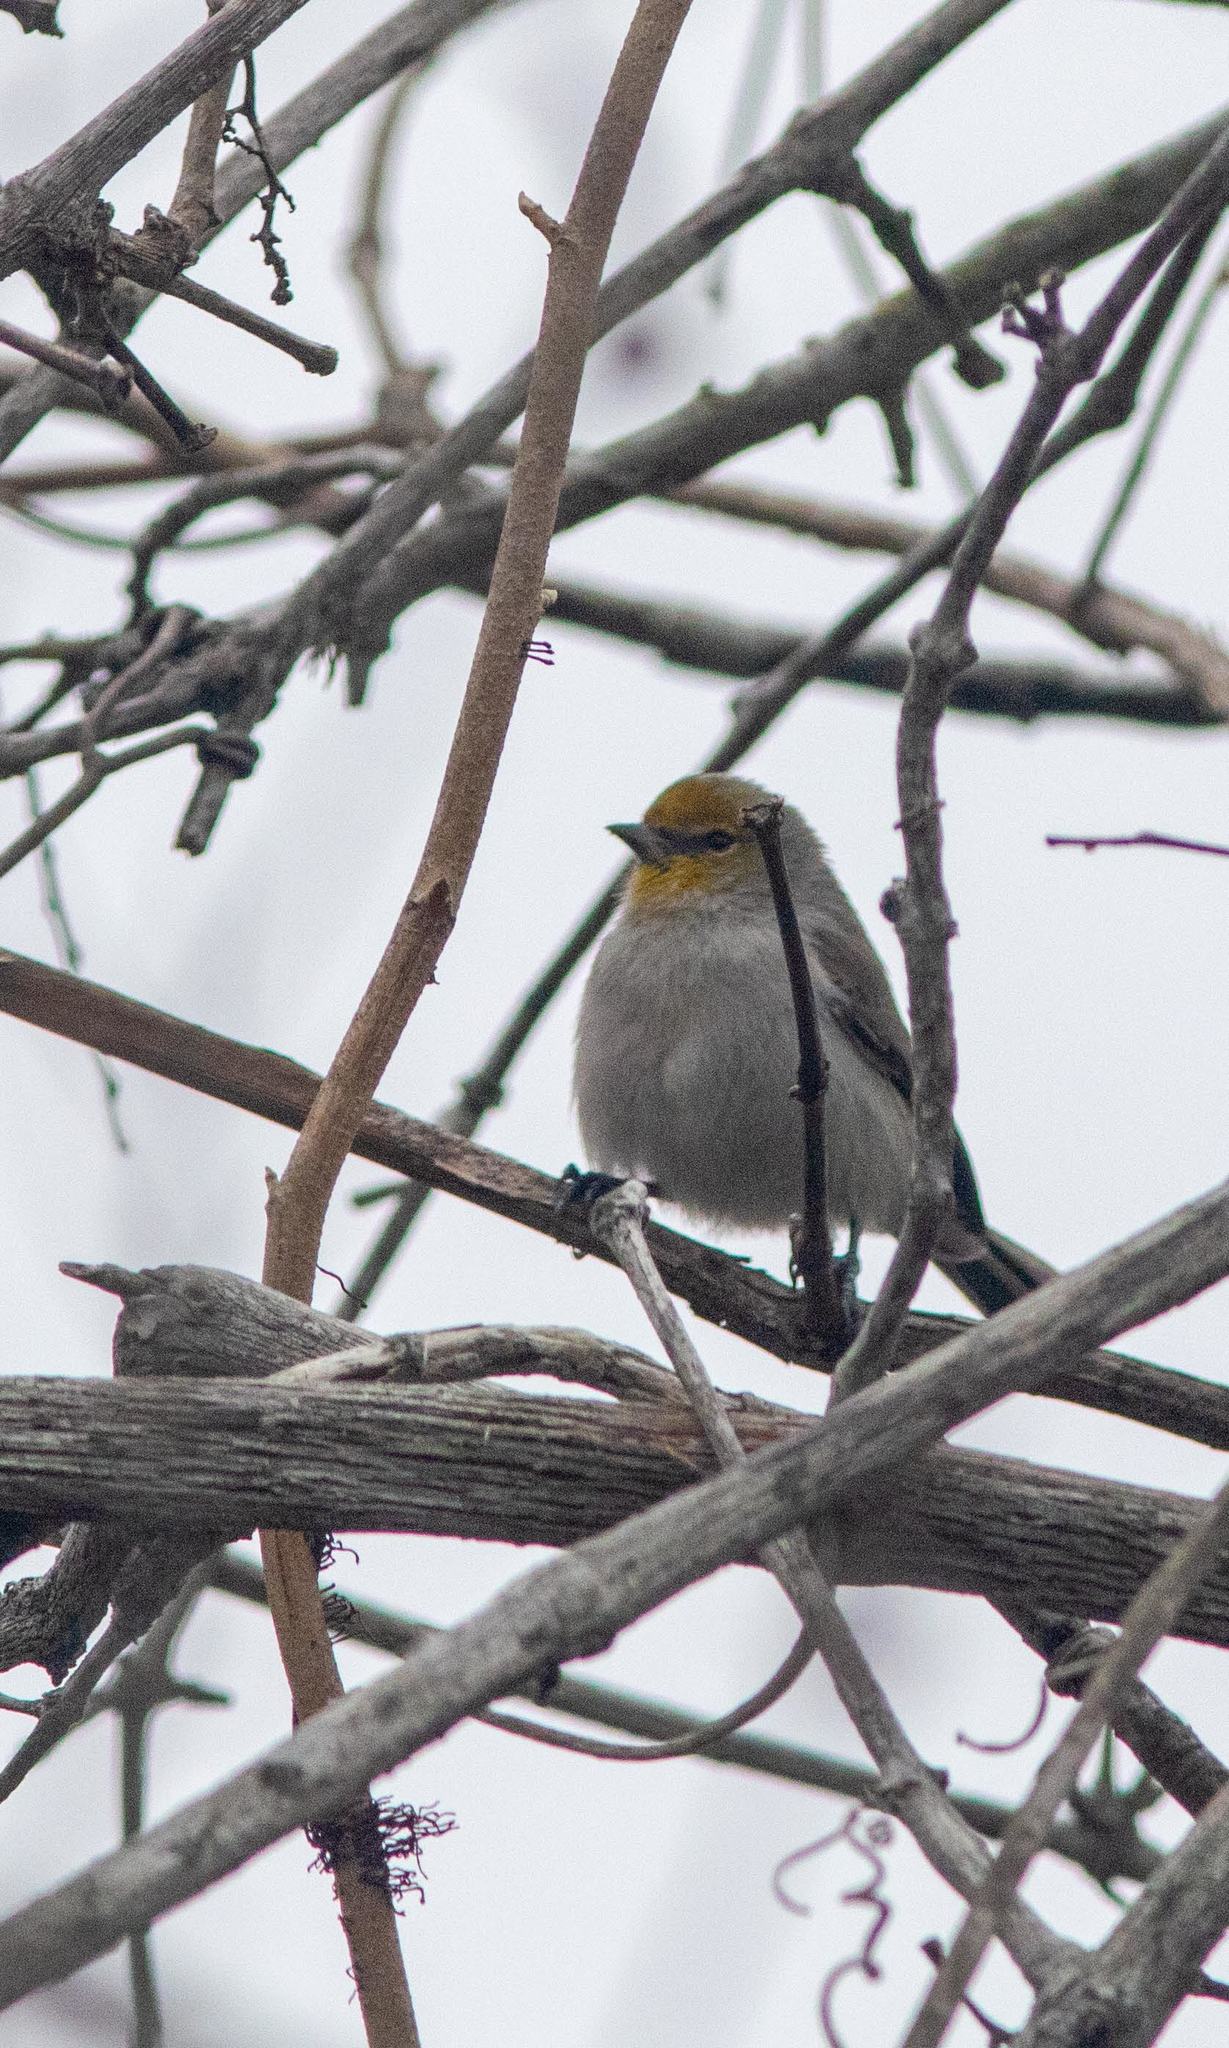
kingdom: Animalia
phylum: Chordata
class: Aves
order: Passeriformes
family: Remizidae
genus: Auriparus
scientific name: Auriparus flaviceps
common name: Verdin
